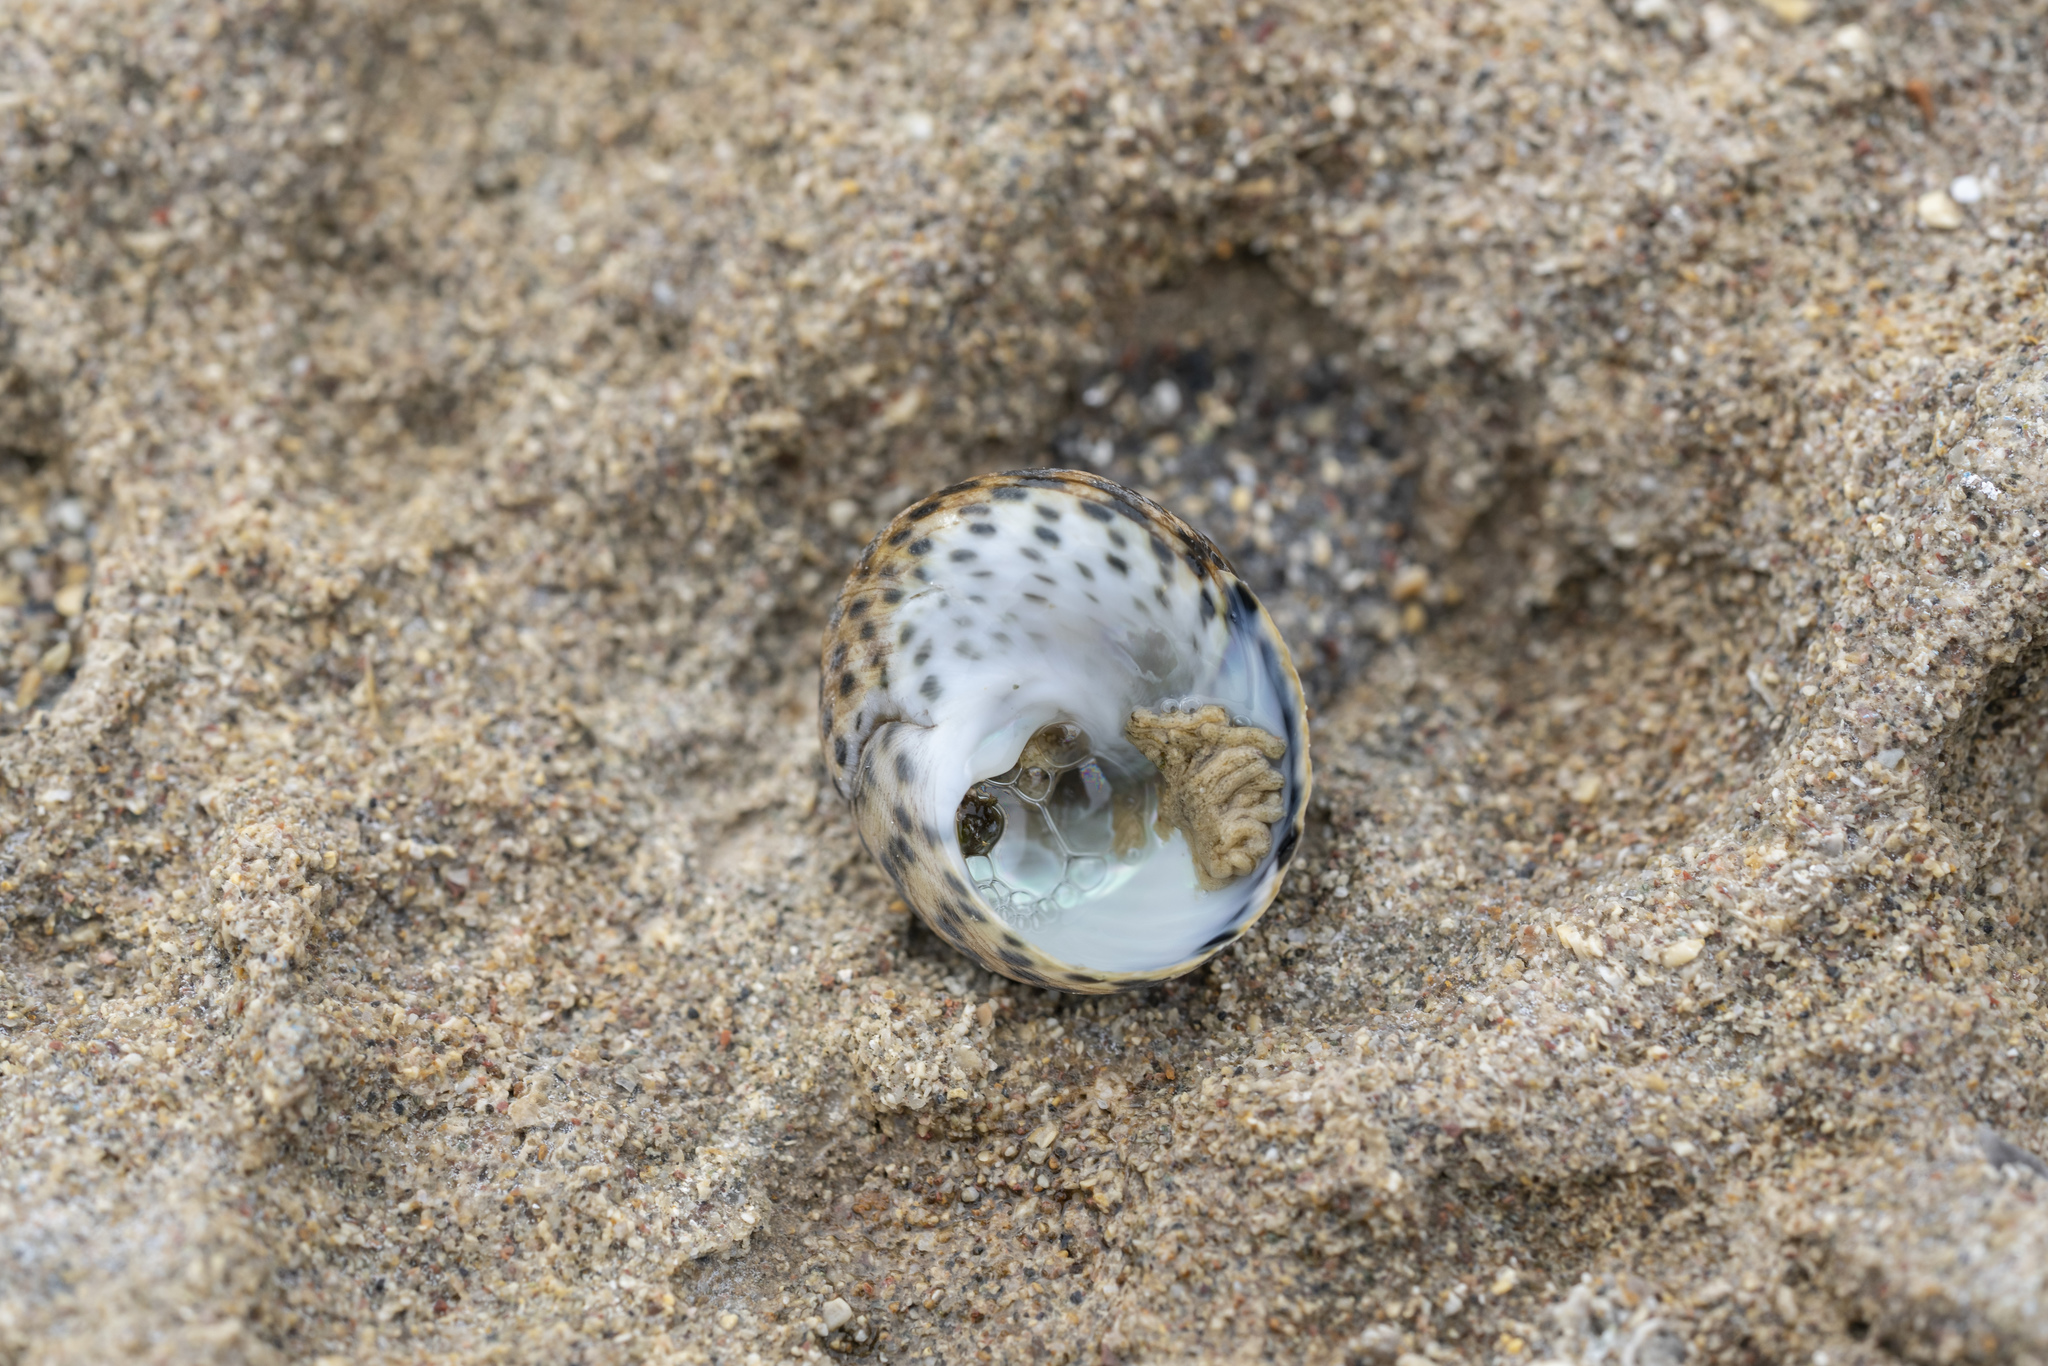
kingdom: Animalia
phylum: Mollusca
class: Gastropoda
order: Trochida
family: Trochidae
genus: Phorcus
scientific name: Phorcus turbinatus
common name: Turbinate monodont
